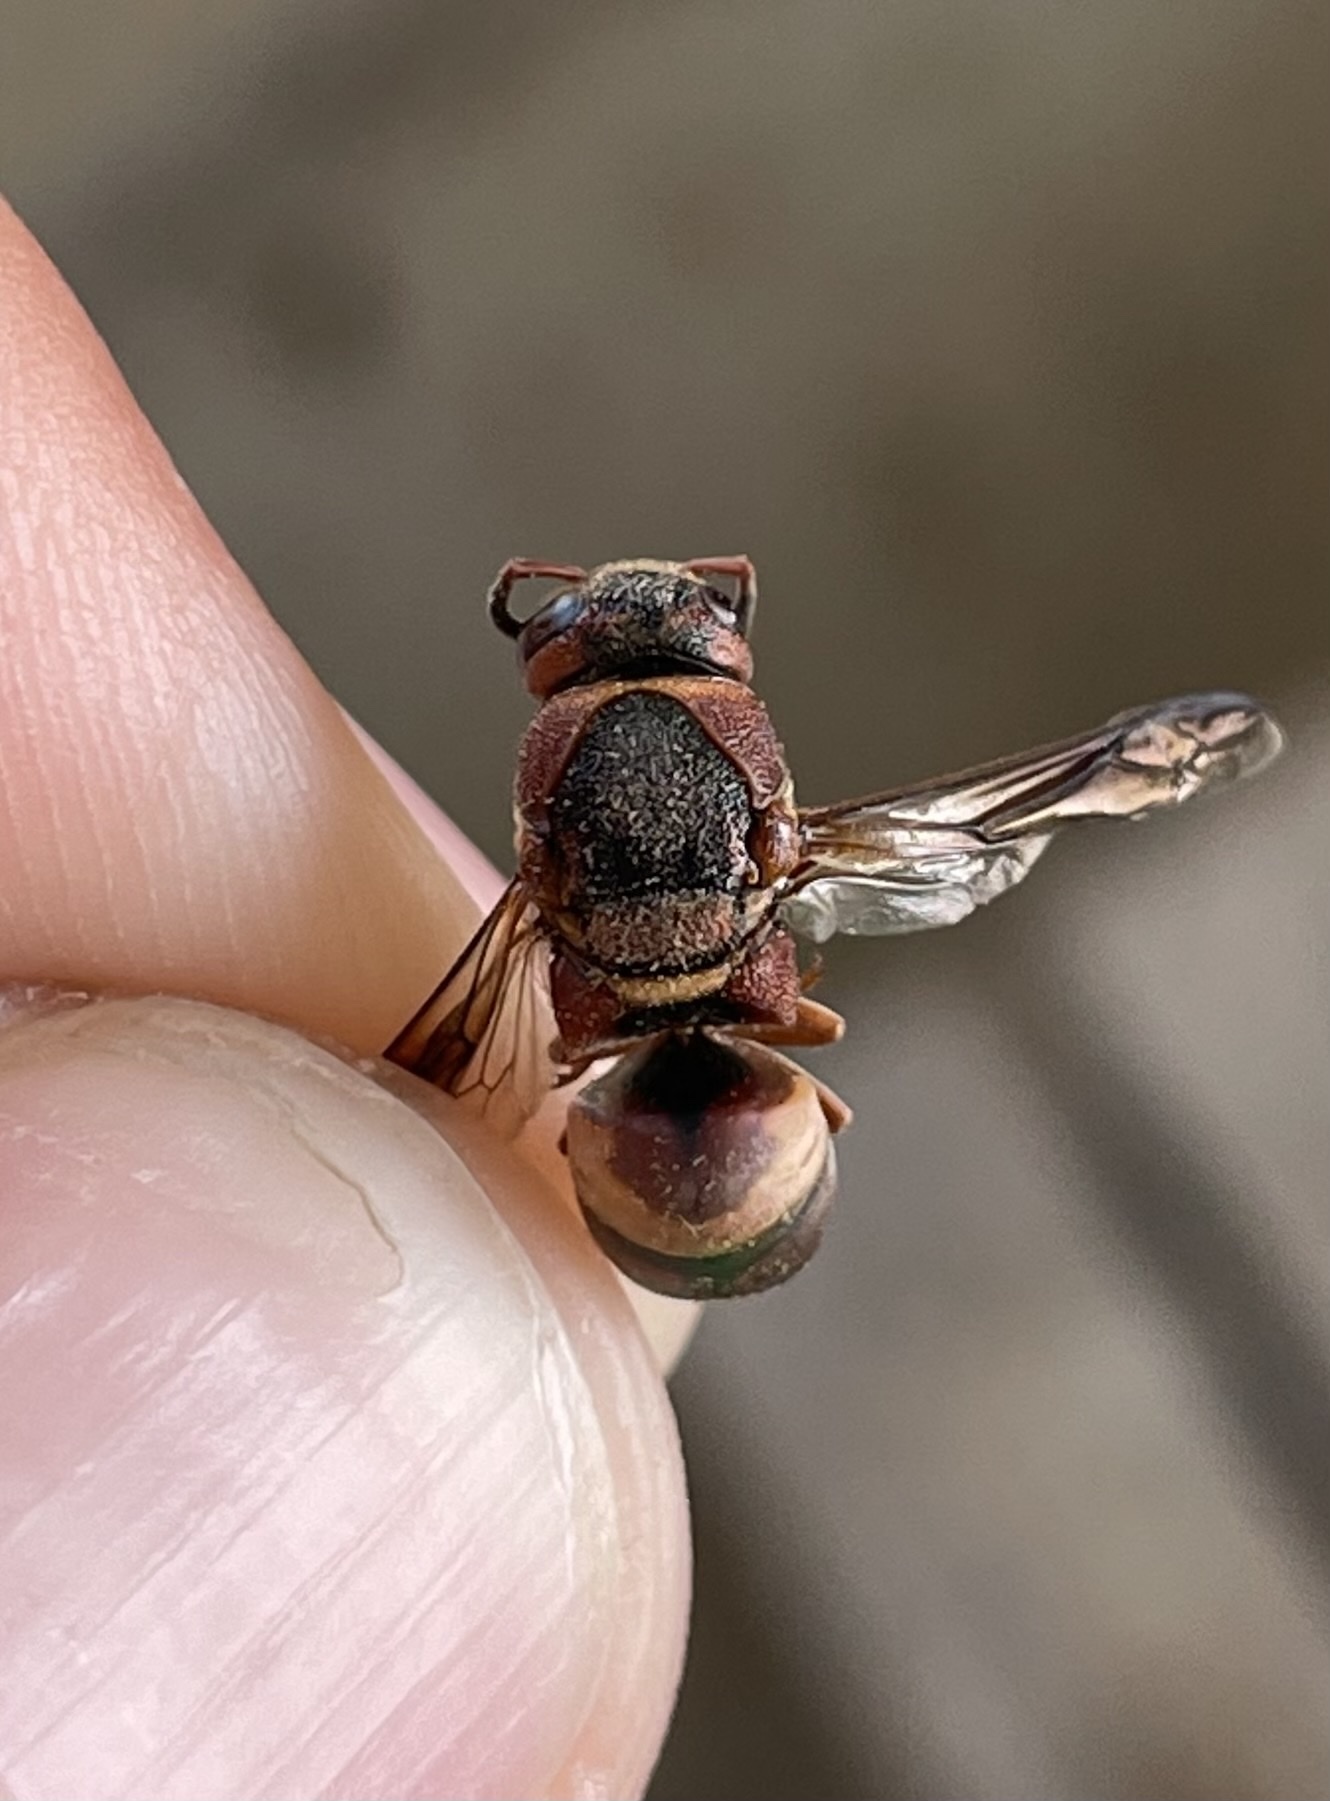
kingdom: Animalia
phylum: Arthropoda
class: Insecta
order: Hymenoptera
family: Eumenidae
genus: Euodynerus
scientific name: Euodynerus hidalgo
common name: Wasp
